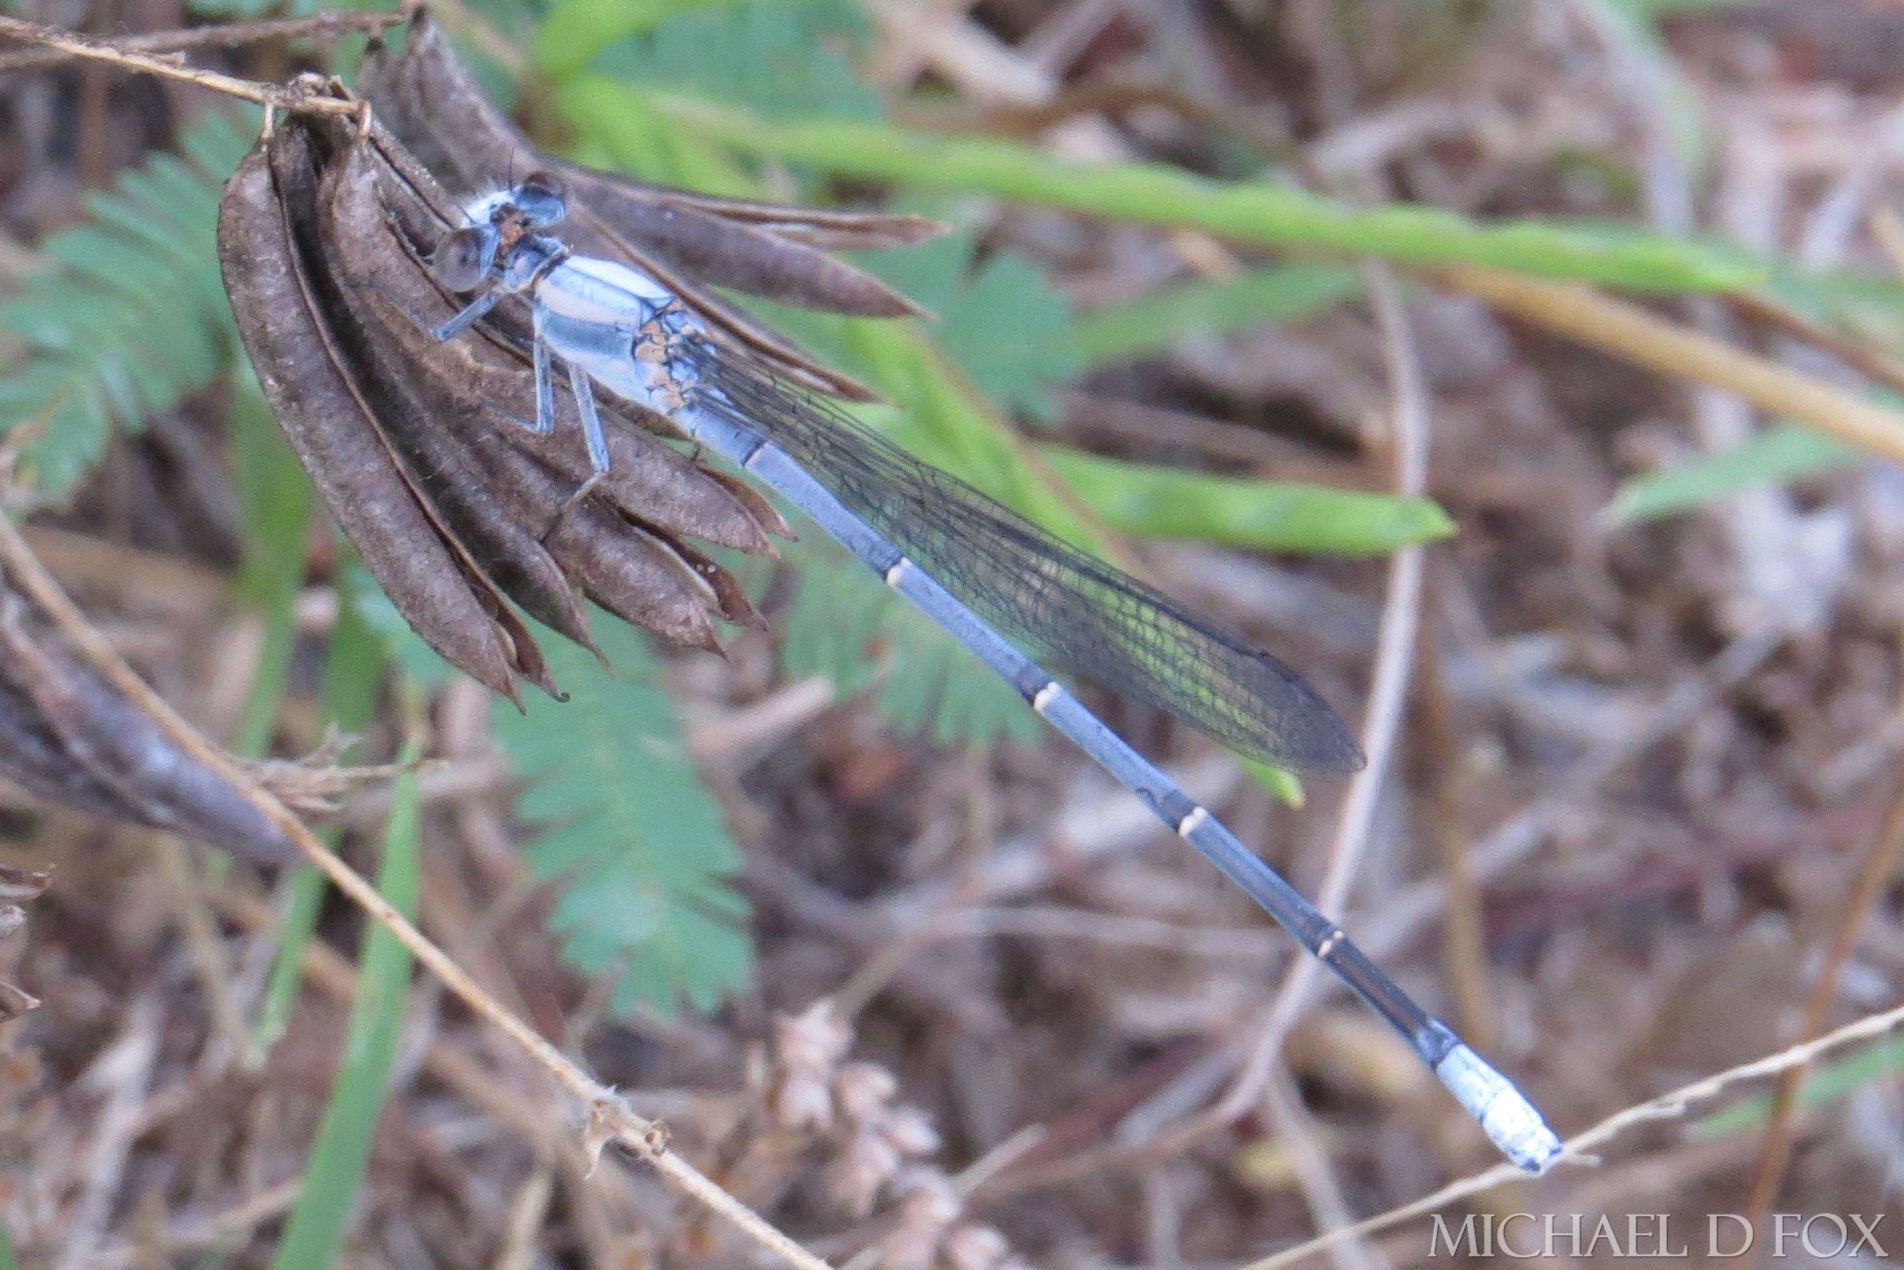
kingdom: Animalia
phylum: Arthropoda
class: Insecta
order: Odonata
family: Coenagrionidae
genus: Argia
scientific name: Argia moesta
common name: Powdered dancer
